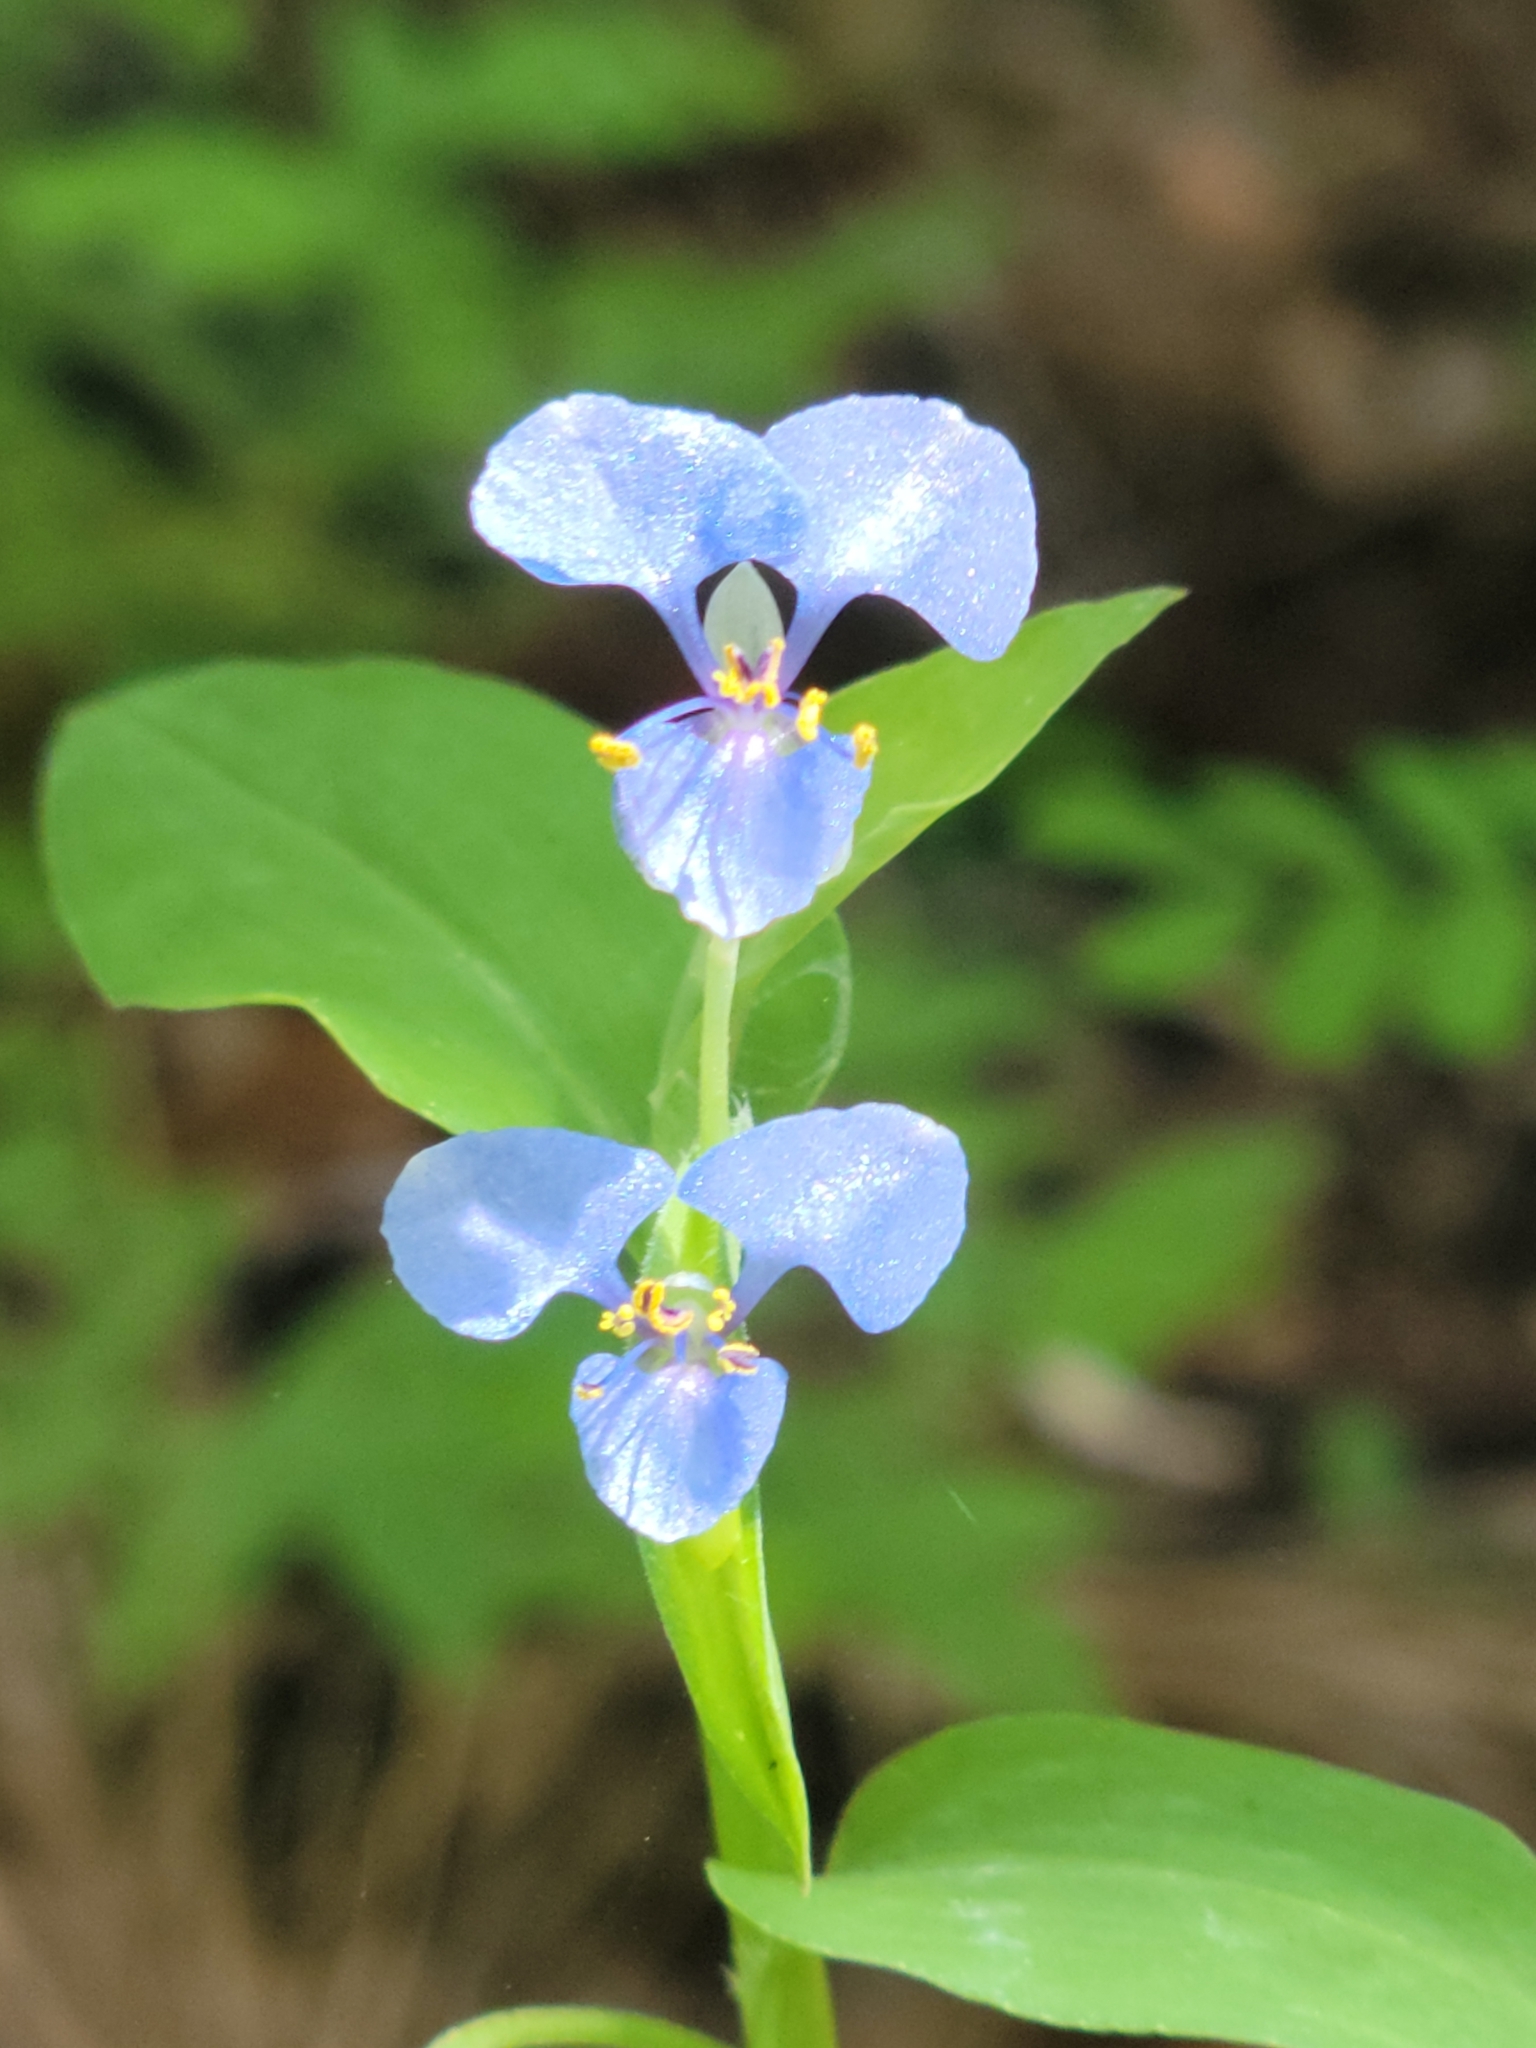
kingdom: Plantae
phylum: Tracheophyta
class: Liliopsida
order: Commelinales
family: Commelinaceae
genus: Commelina
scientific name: Commelina diffusa
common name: Climbing dayflower
